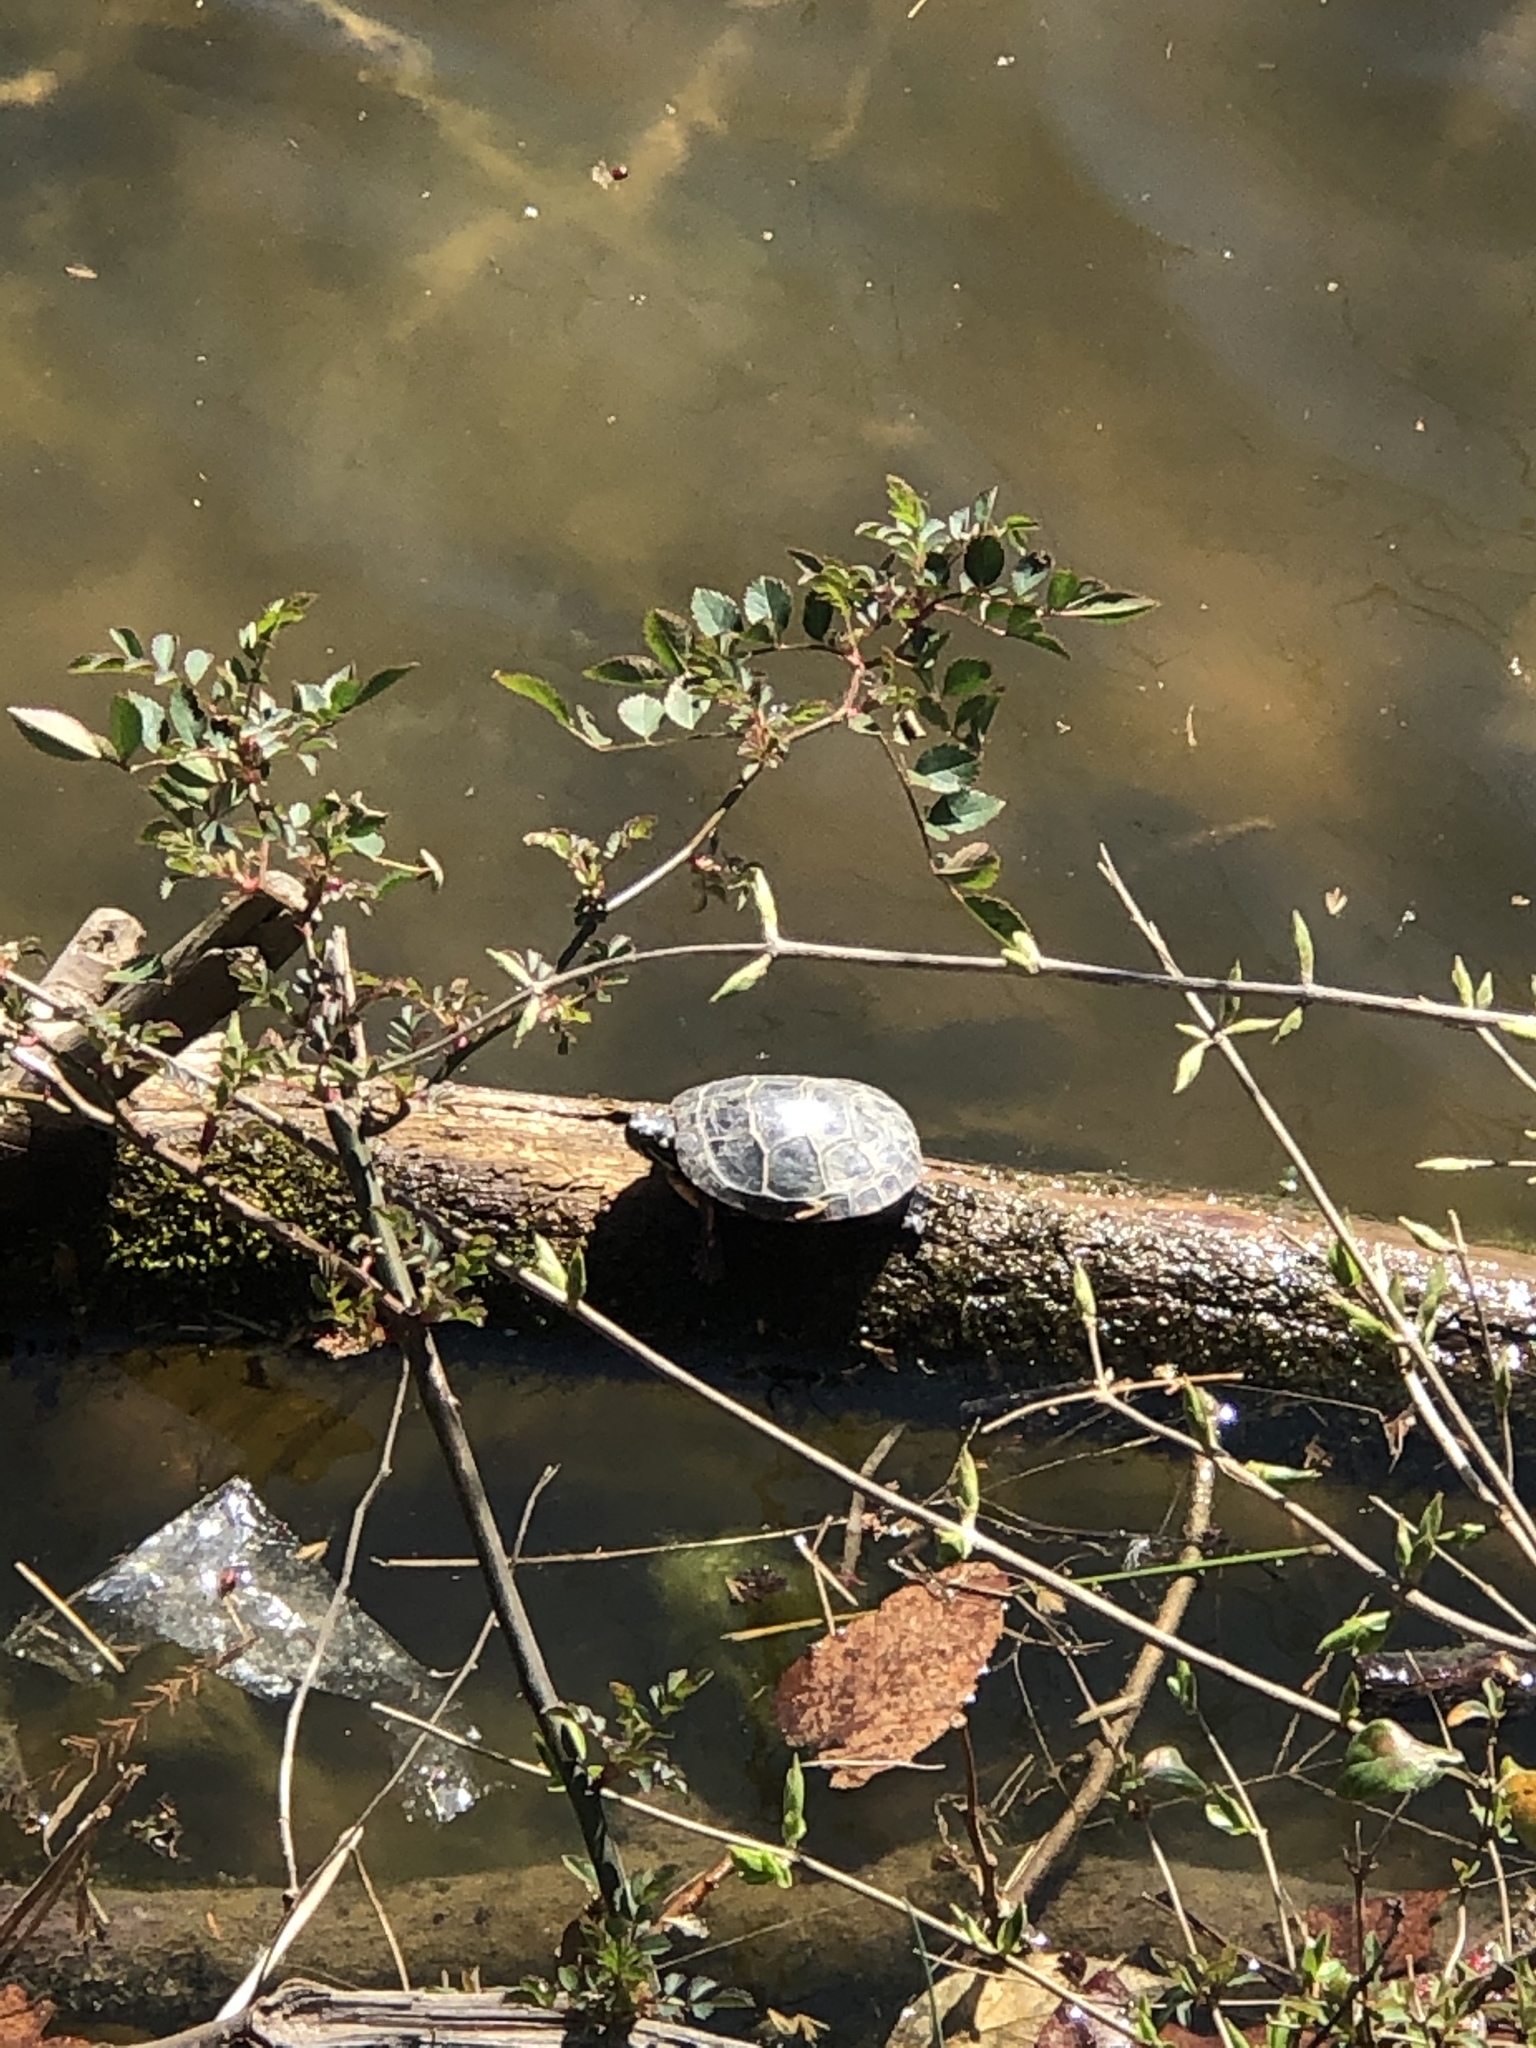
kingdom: Animalia
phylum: Chordata
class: Testudines
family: Emydidae
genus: Chrysemys
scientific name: Chrysemys picta
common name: Painted turtle
